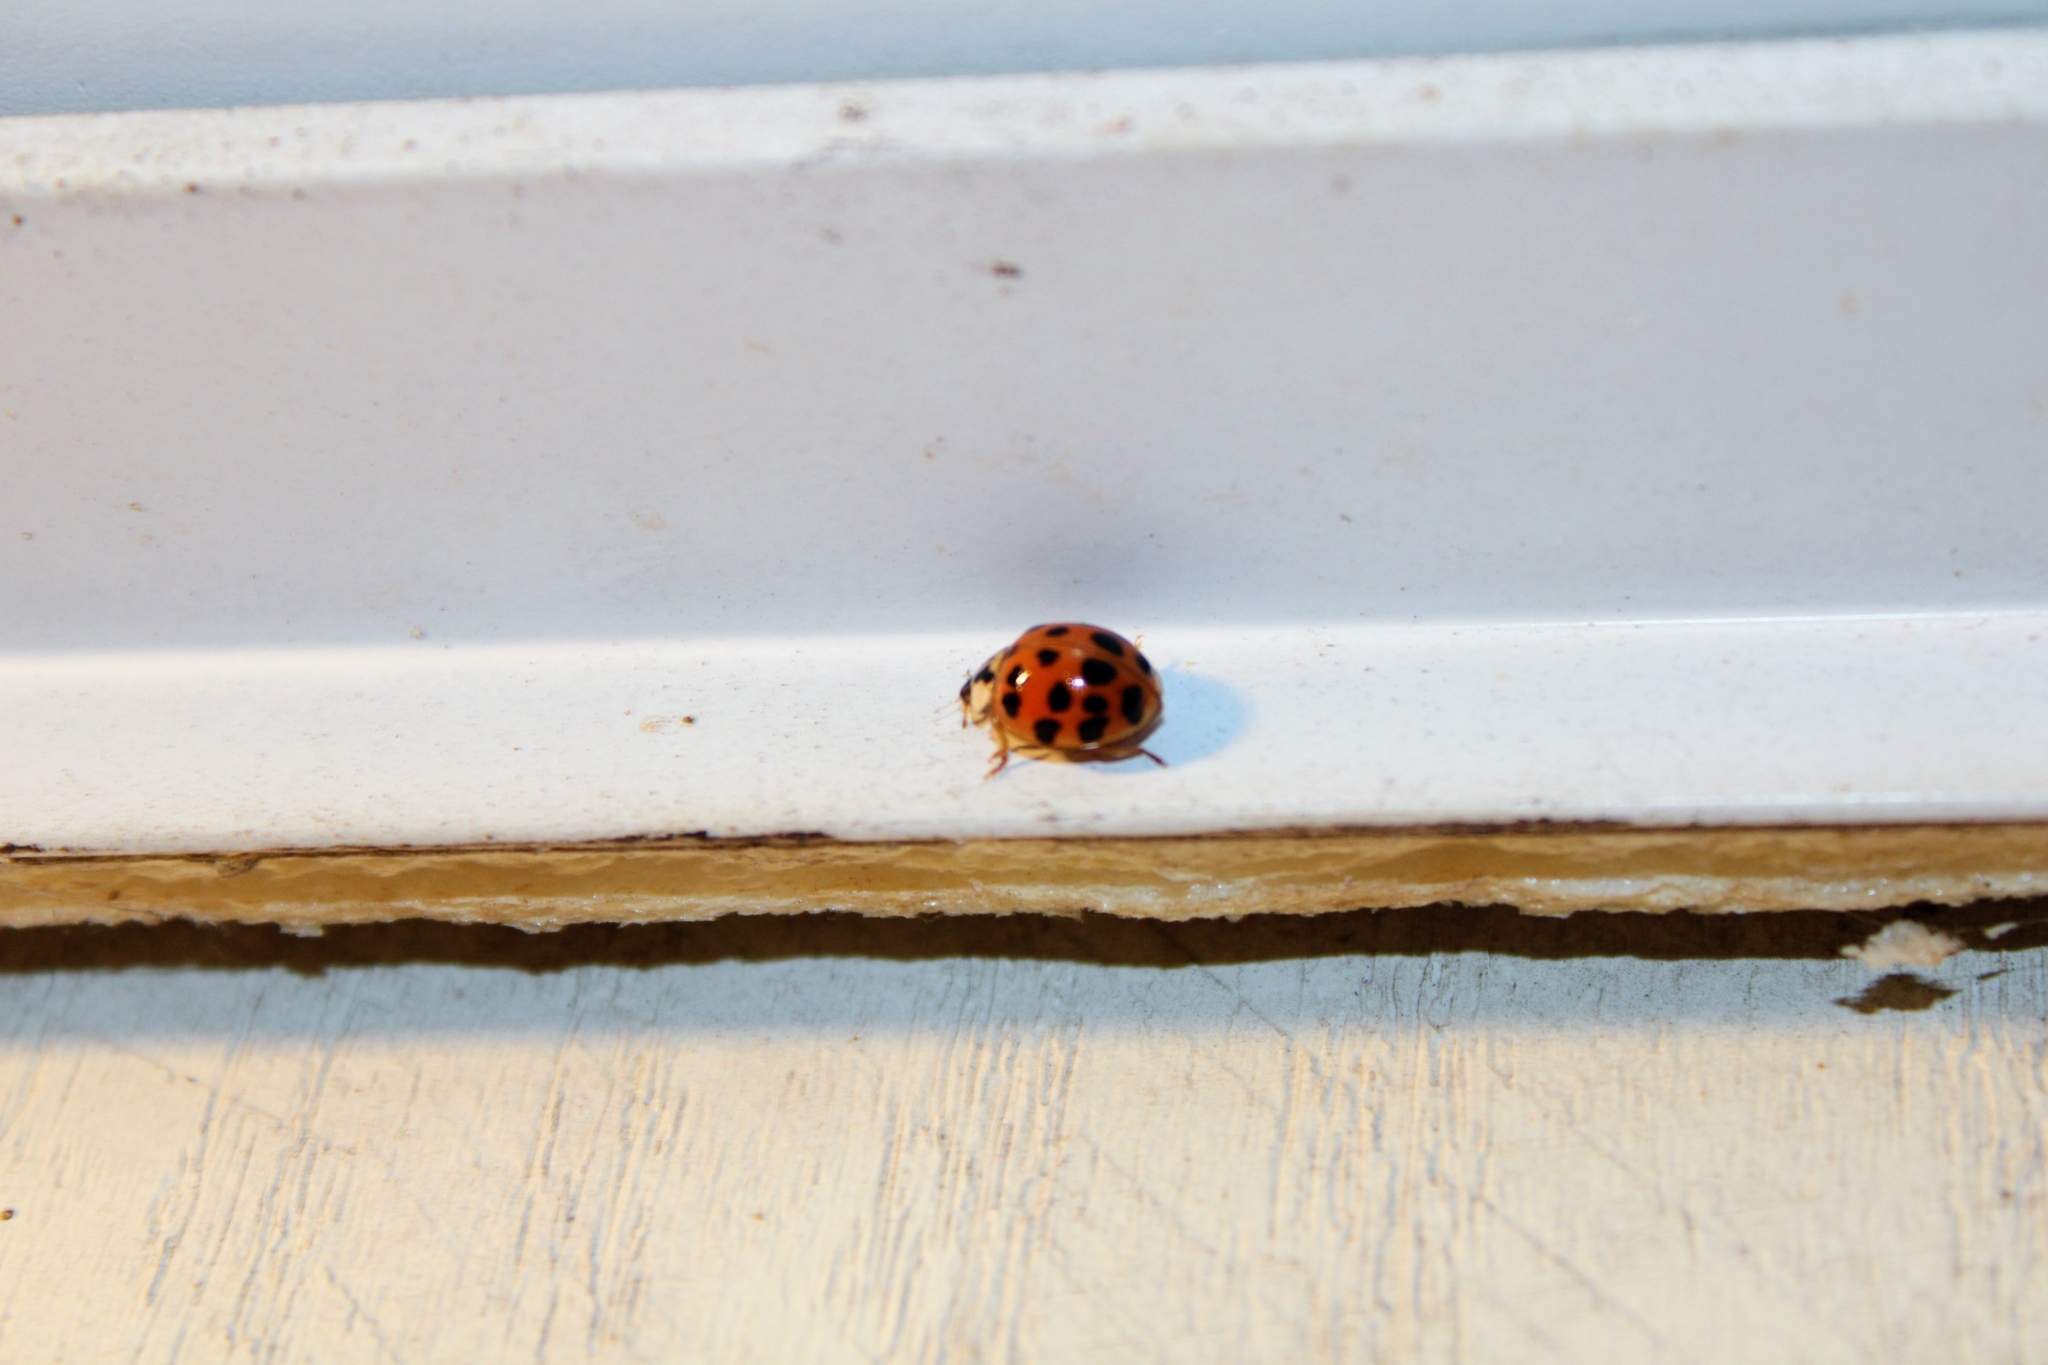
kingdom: Animalia
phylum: Arthropoda
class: Insecta
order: Coleoptera
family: Coccinellidae
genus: Harmonia
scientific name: Harmonia axyridis
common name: Harlequin ladybird
